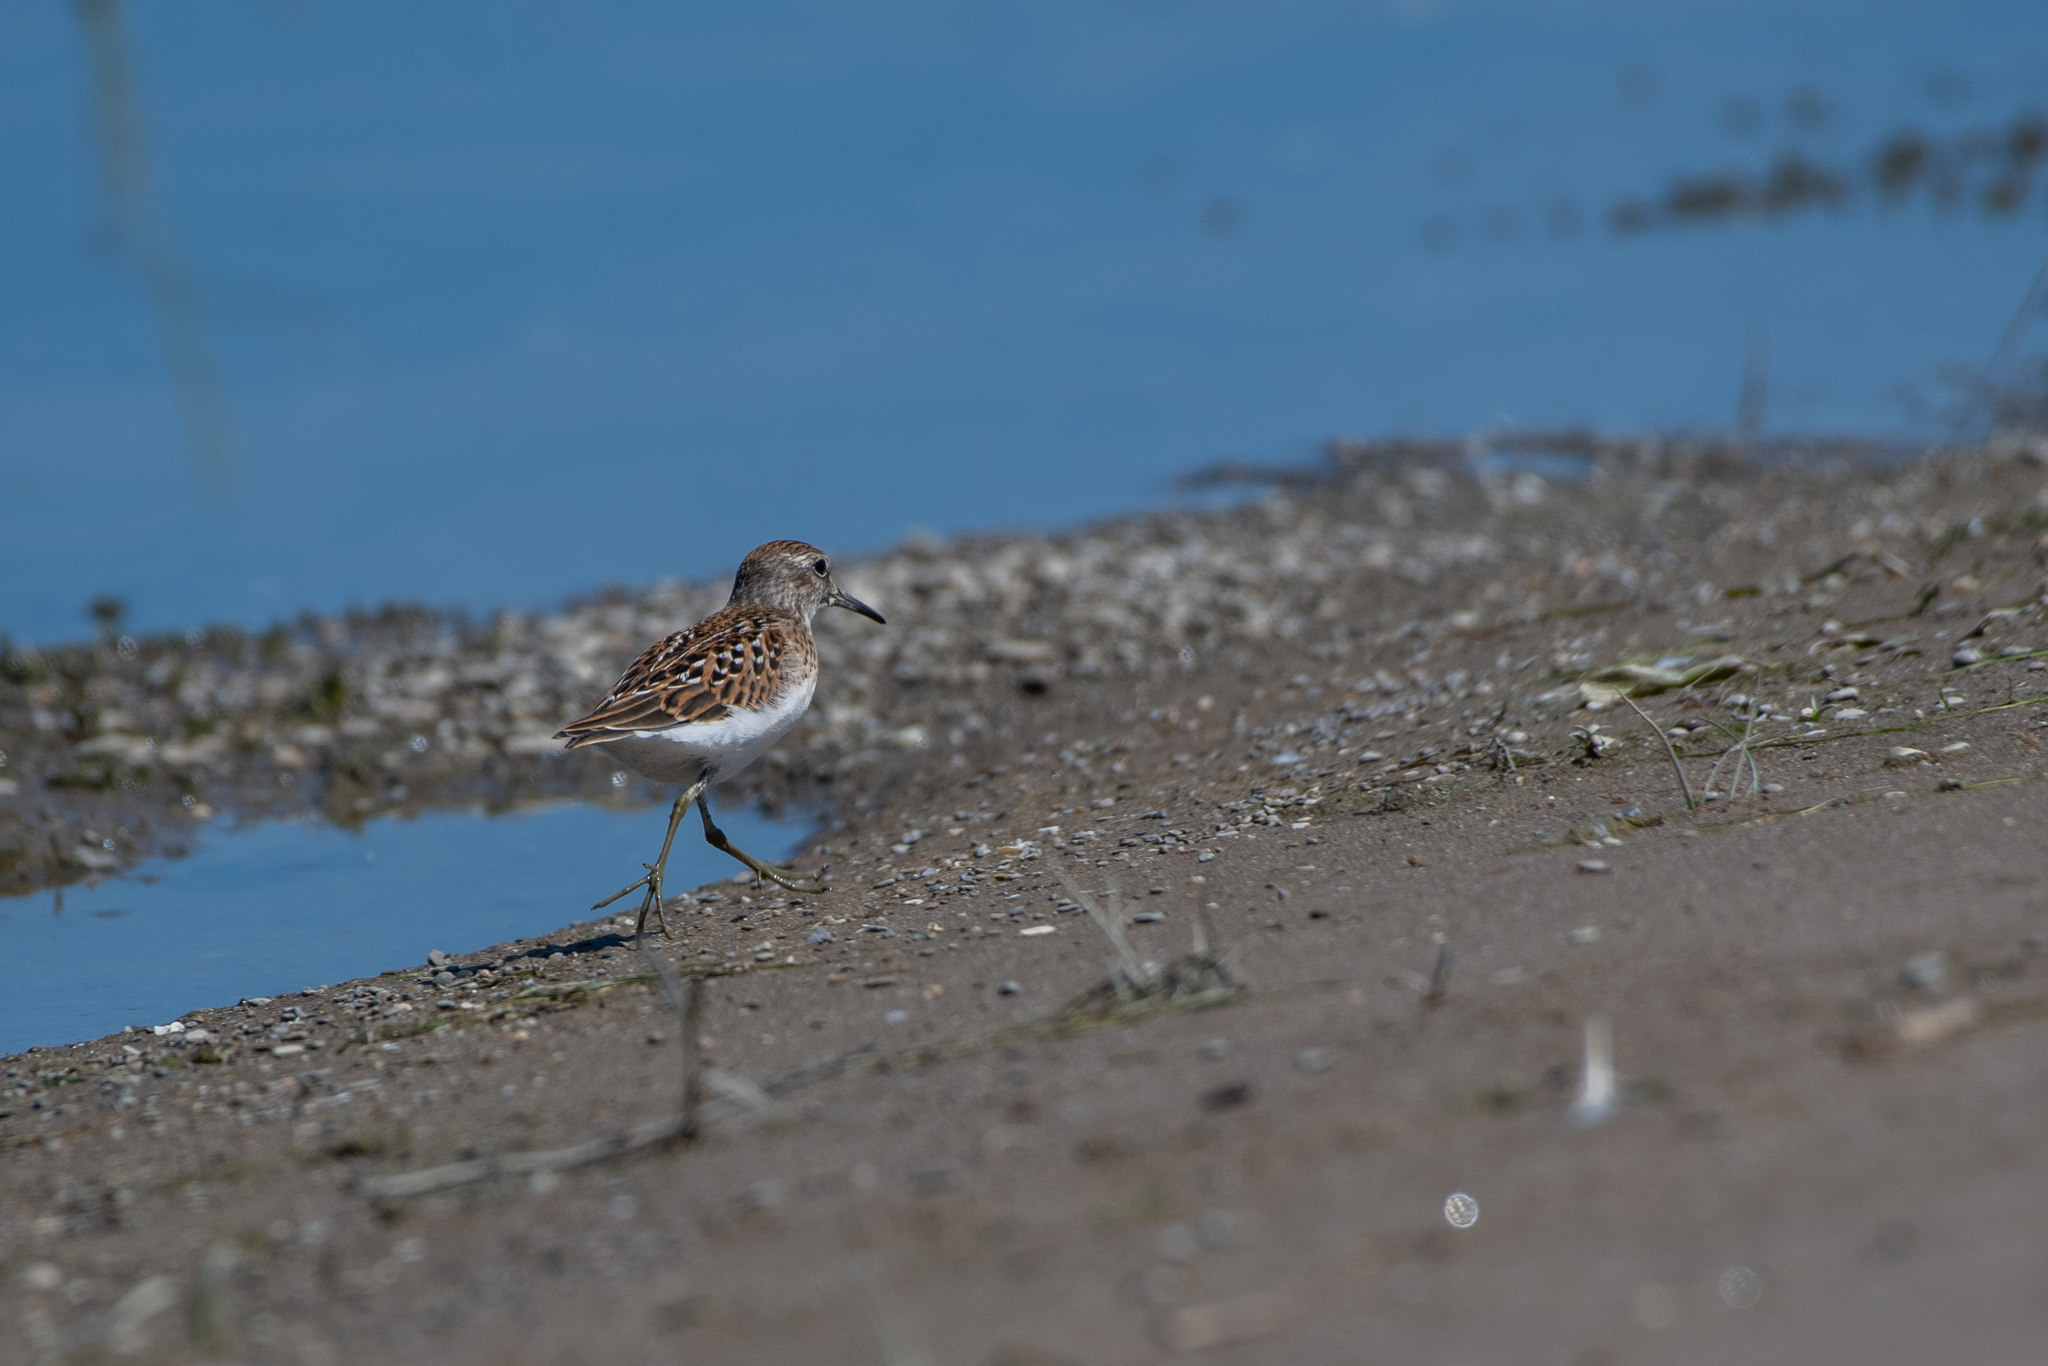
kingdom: Animalia
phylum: Chordata
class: Aves
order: Charadriiformes
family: Scolopacidae
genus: Calidris
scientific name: Calidris minutilla
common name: Least sandpiper
